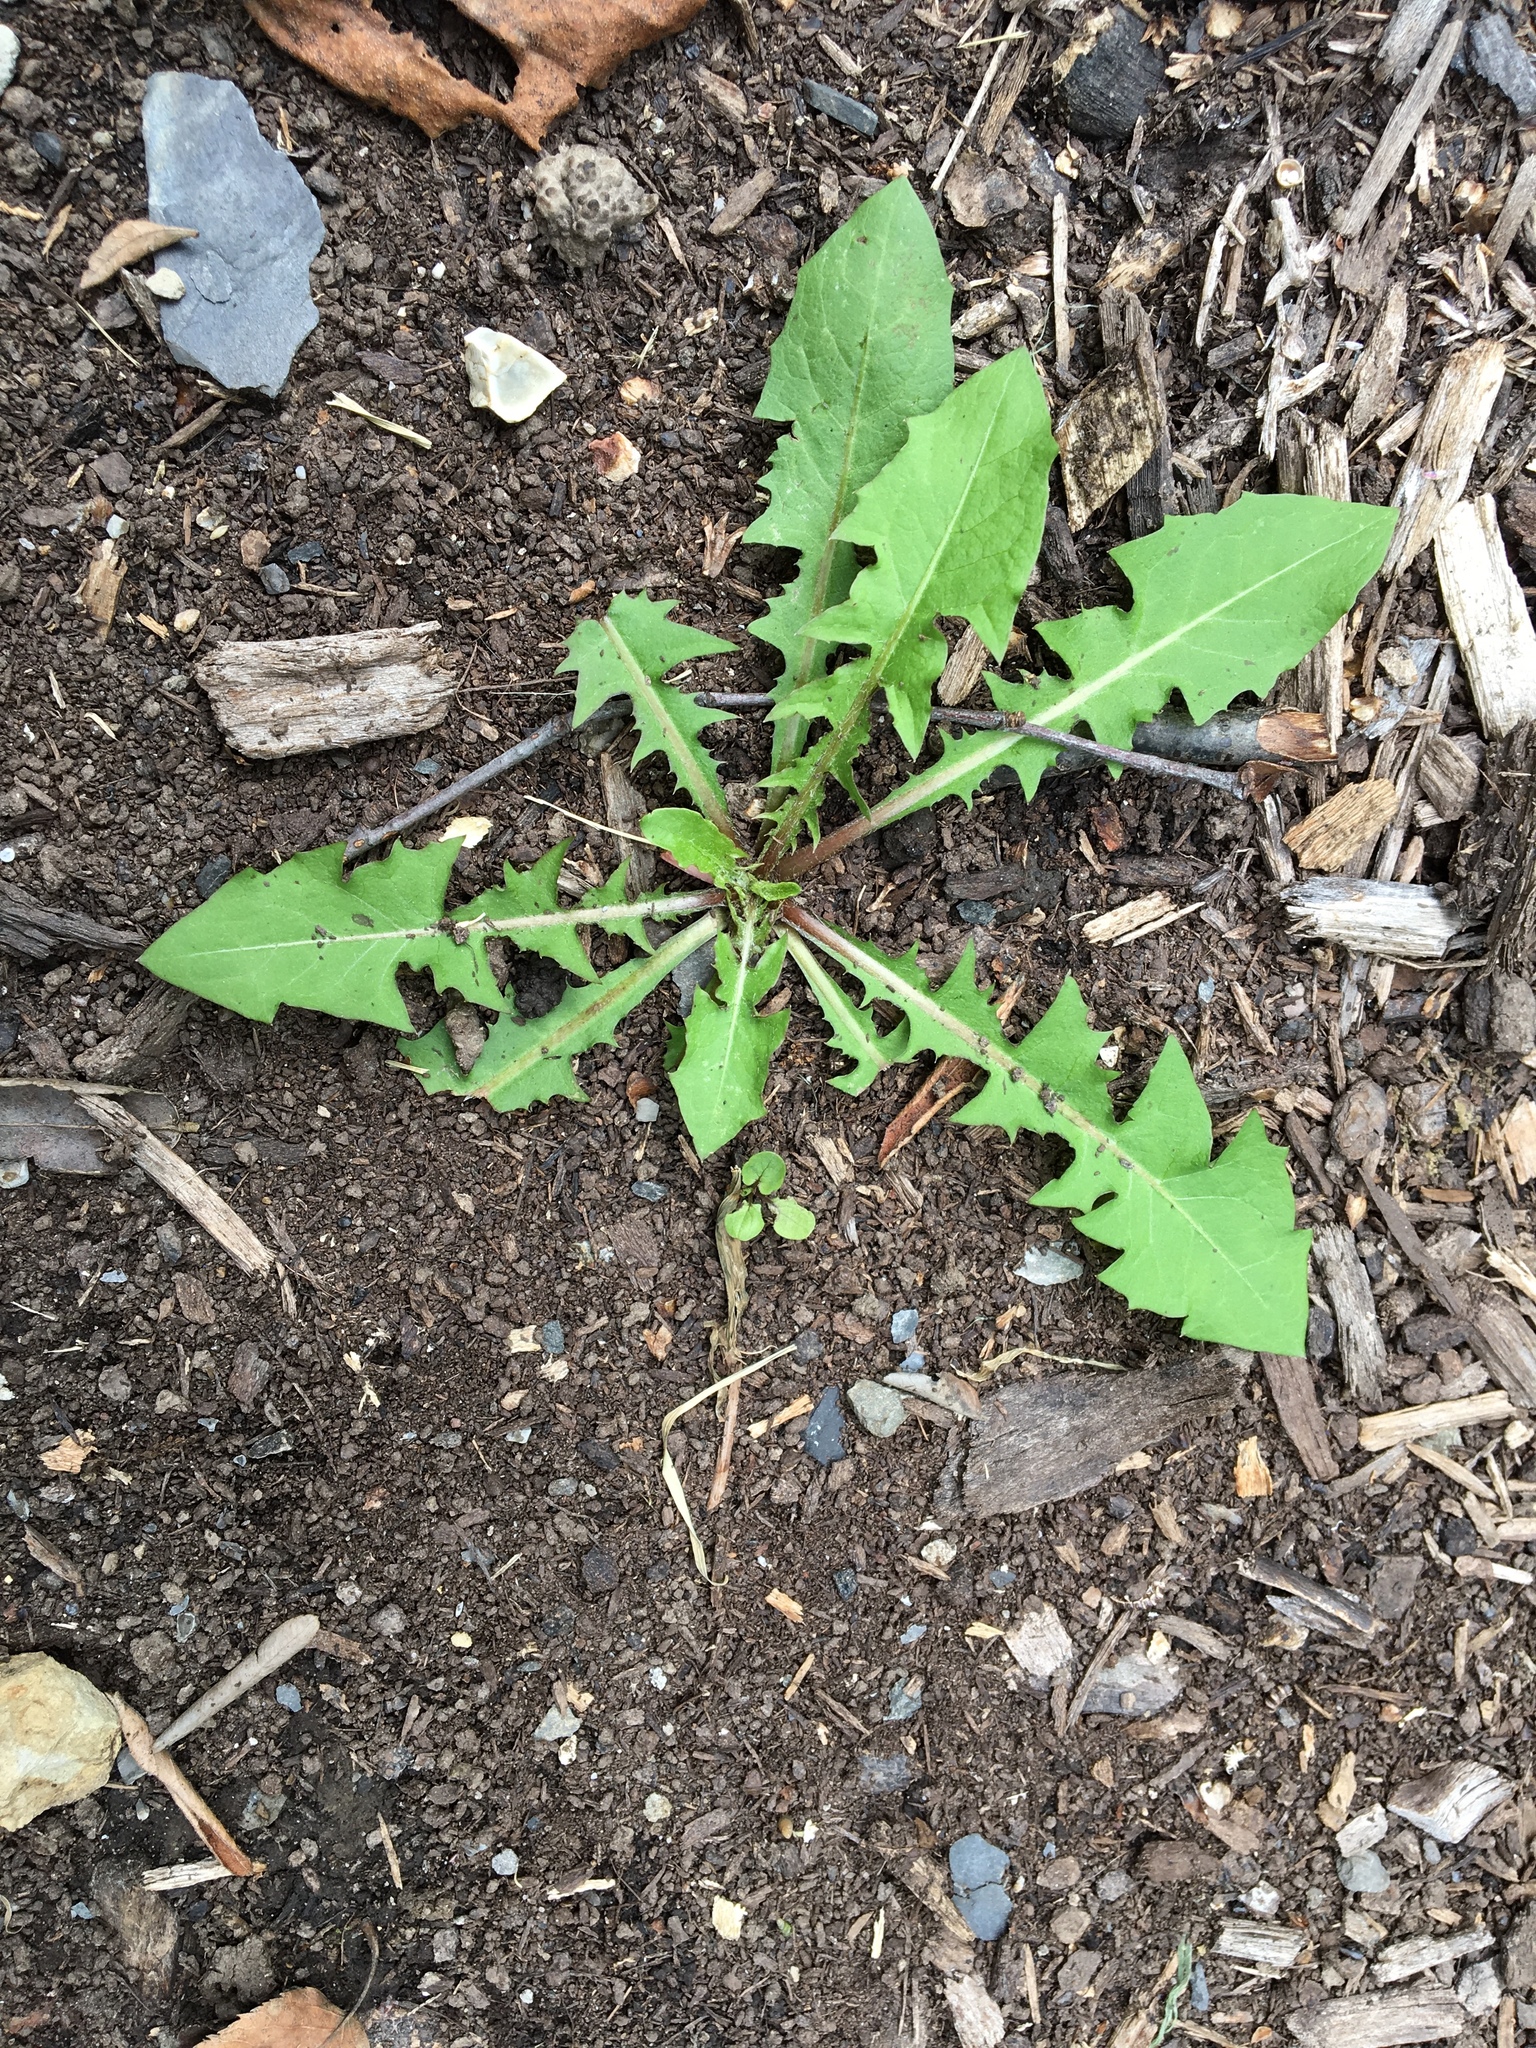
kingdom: Plantae
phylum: Tracheophyta
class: Magnoliopsida
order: Asterales
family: Asteraceae
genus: Taraxacum
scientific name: Taraxacum officinale
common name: Common dandelion
